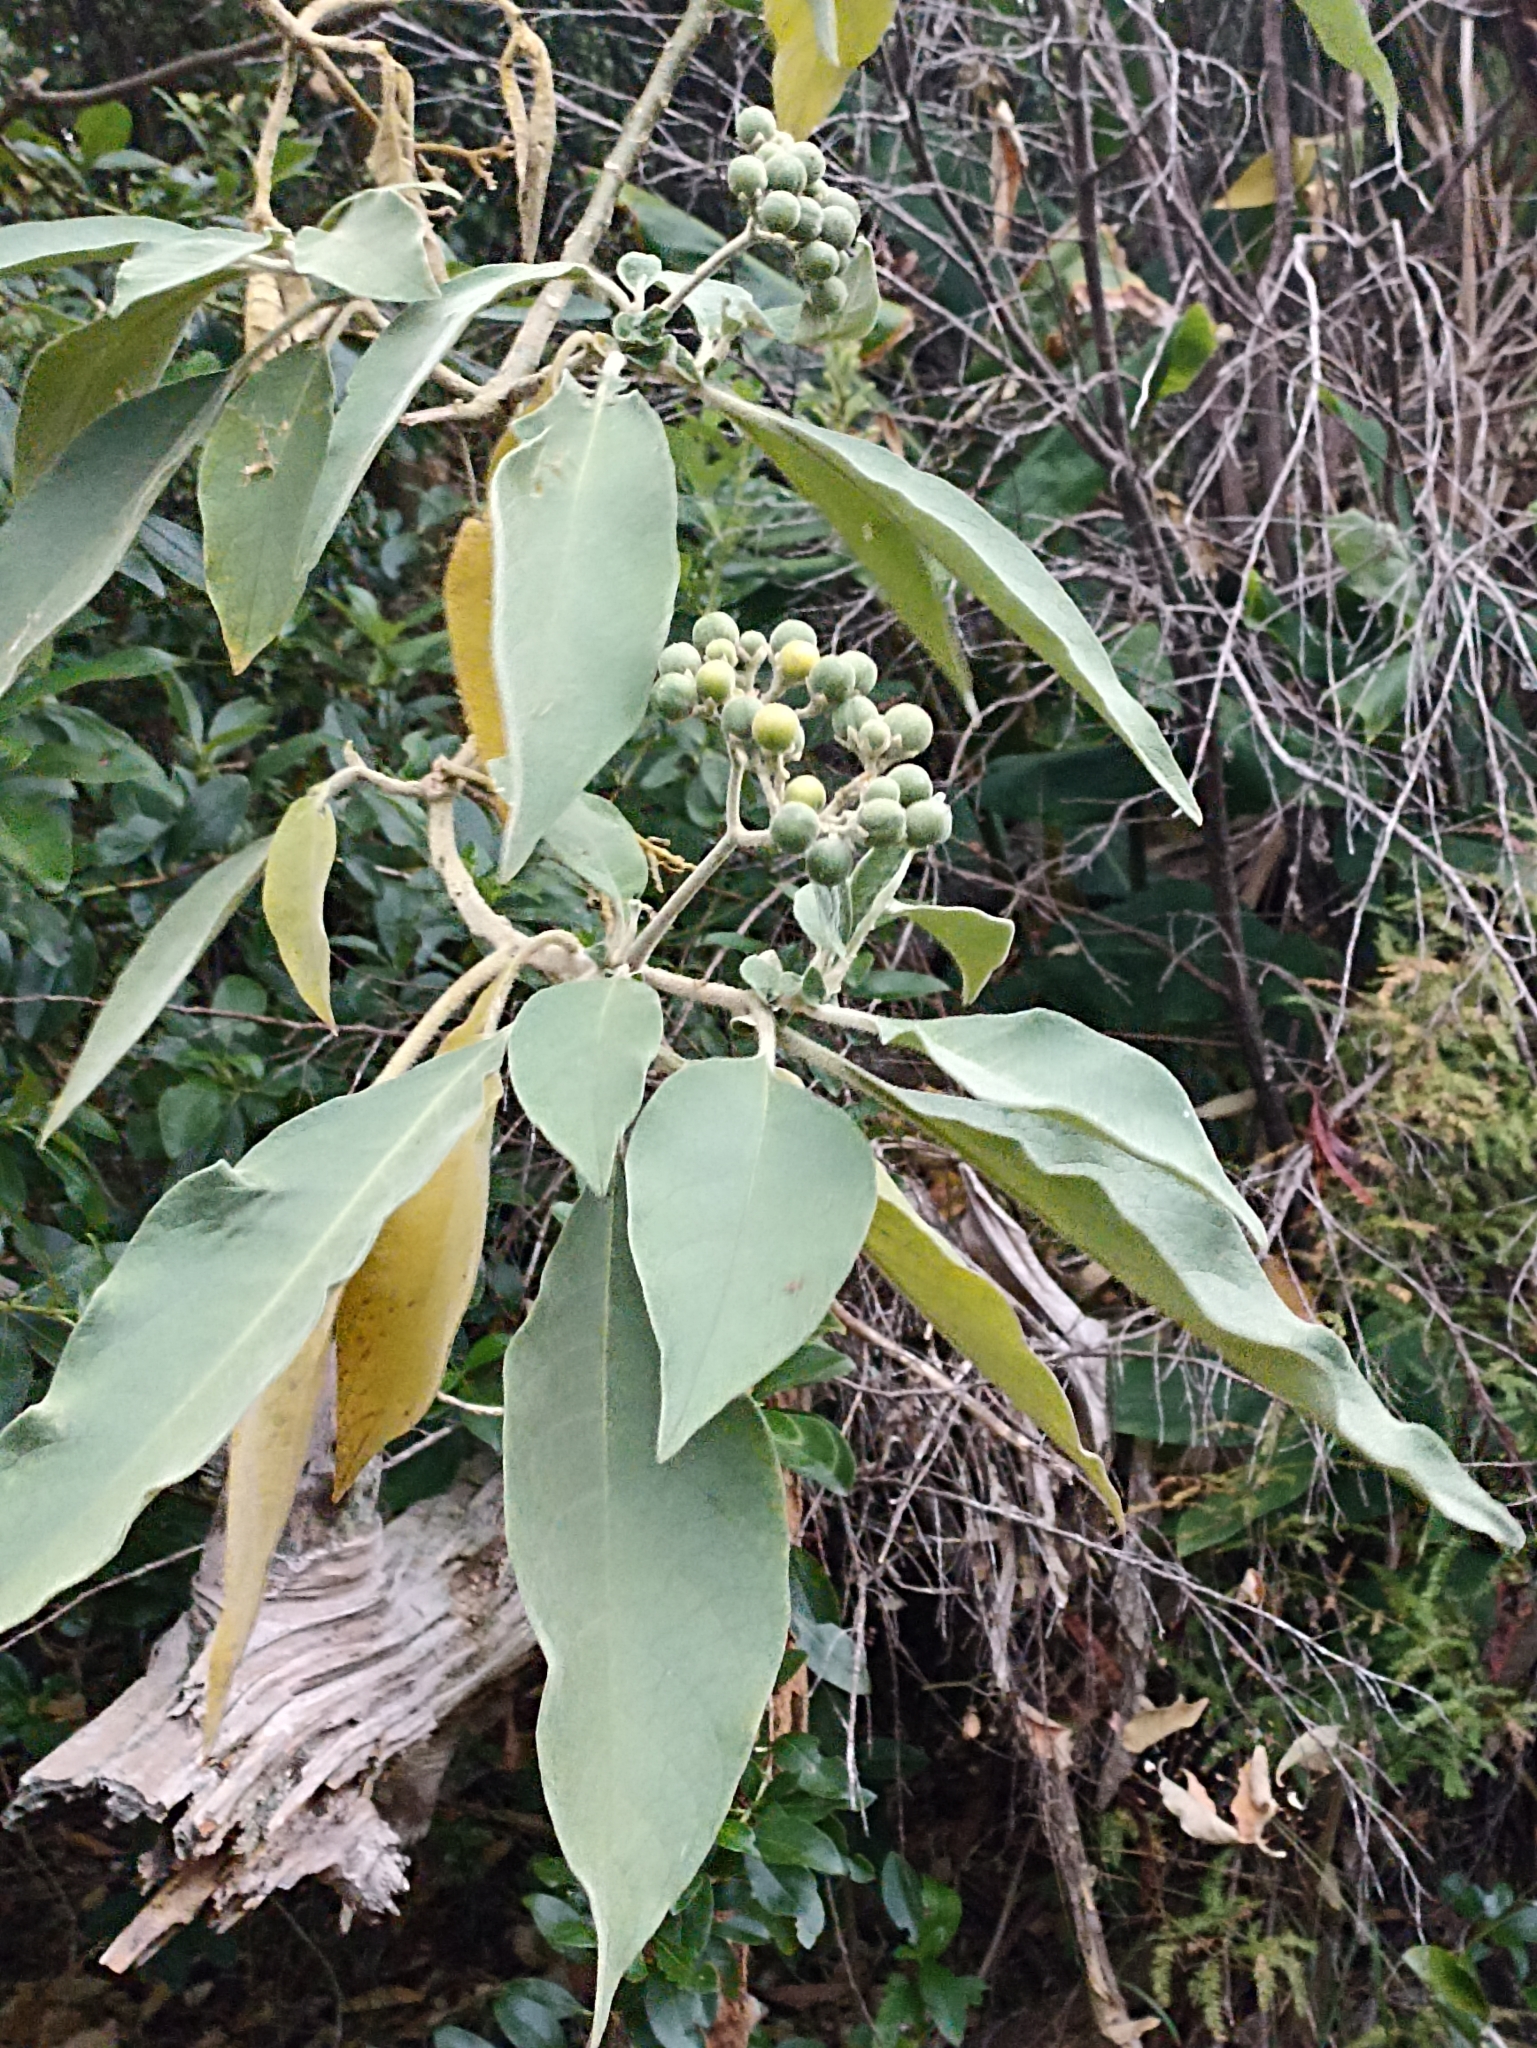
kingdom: Plantae
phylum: Tracheophyta
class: Magnoliopsida
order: Solanales
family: Solanaceae
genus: Solanum
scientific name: Solanum mauritianum
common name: Earleaf nightshade
